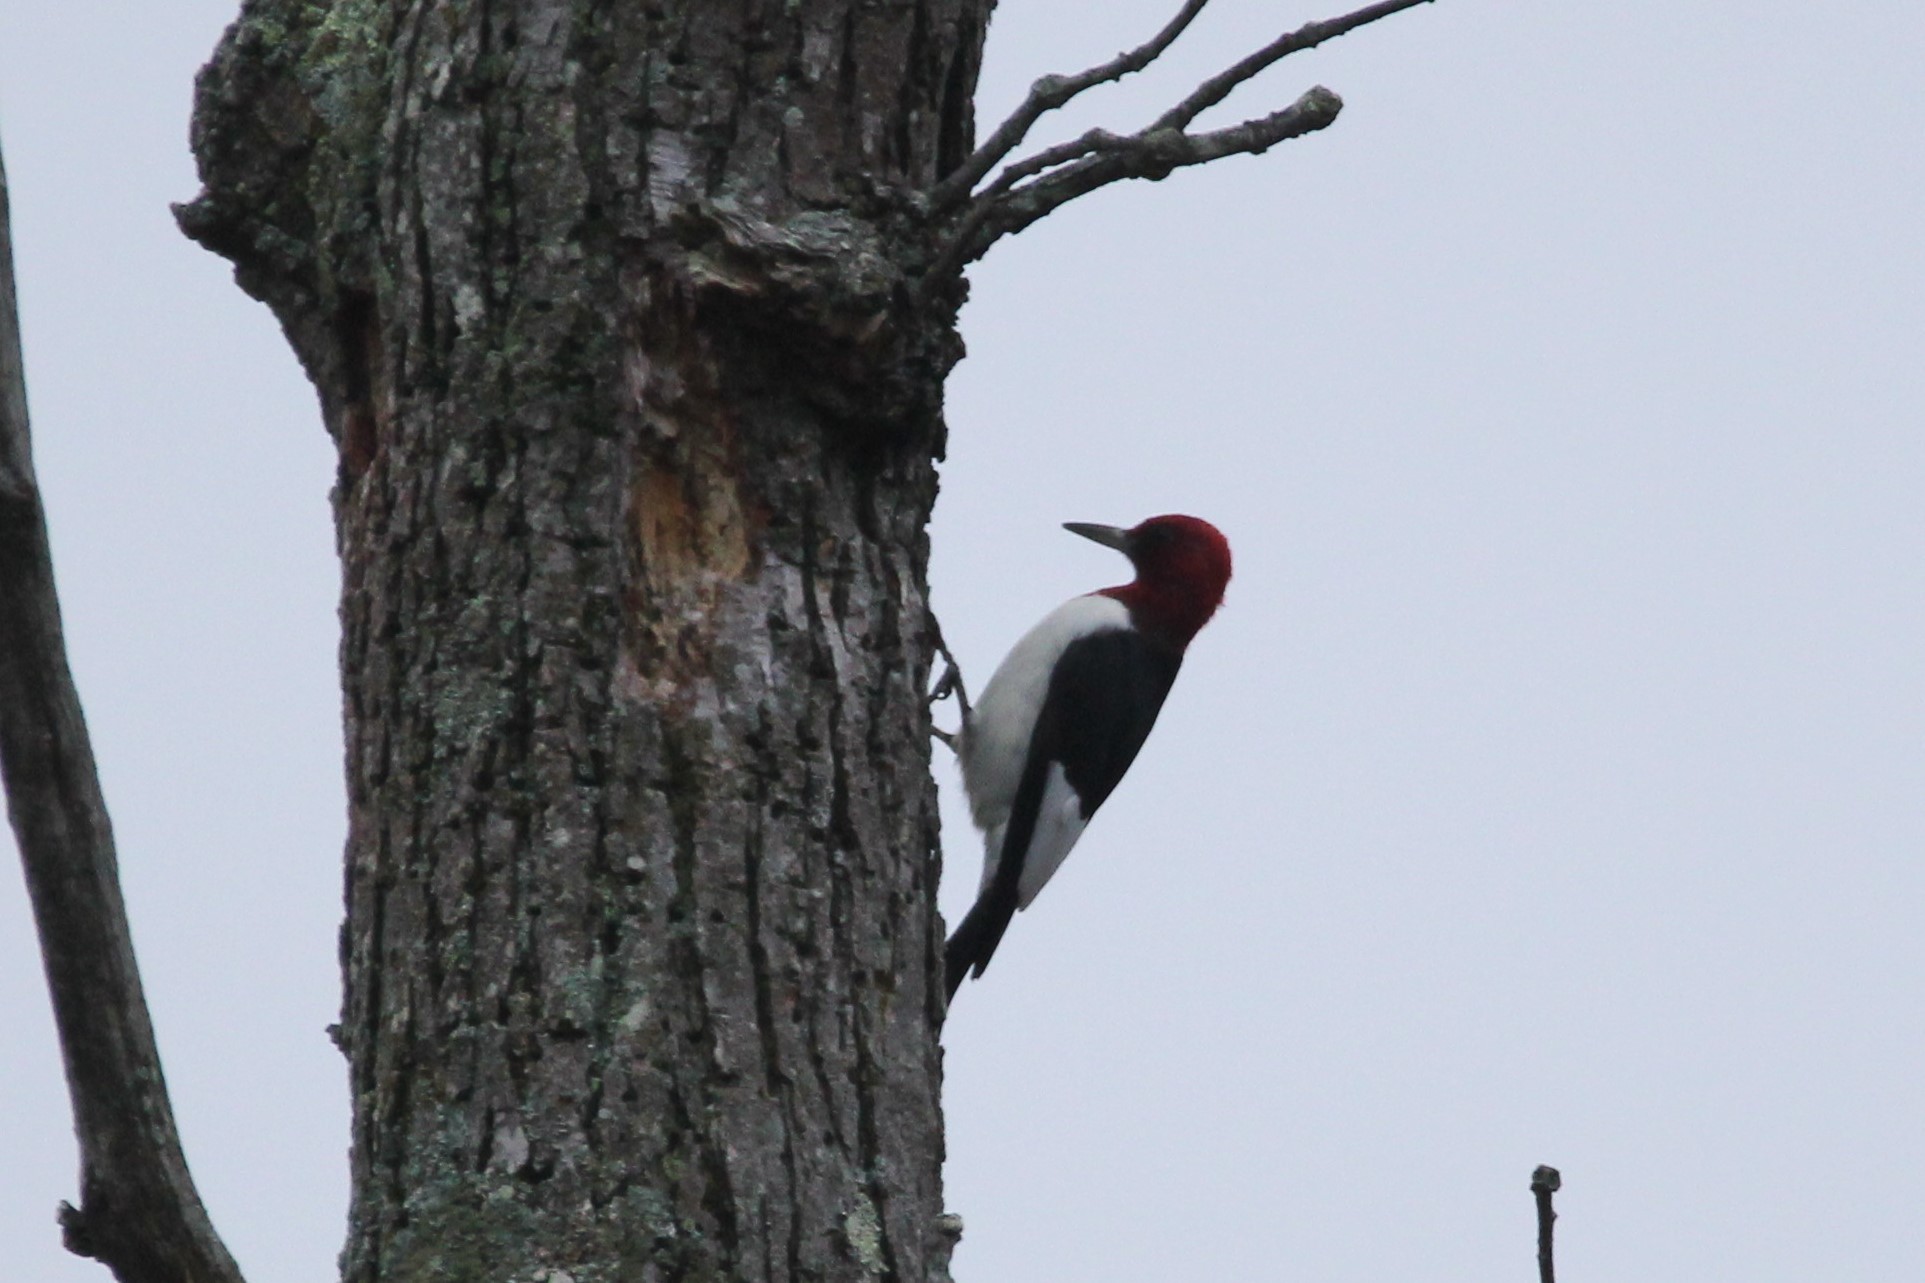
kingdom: Animalia
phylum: Chordata
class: Aves
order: Piciformes
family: Picidae
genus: Melanerpes
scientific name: Melanerpes erythrocephalus
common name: Red-headed woodpecker
